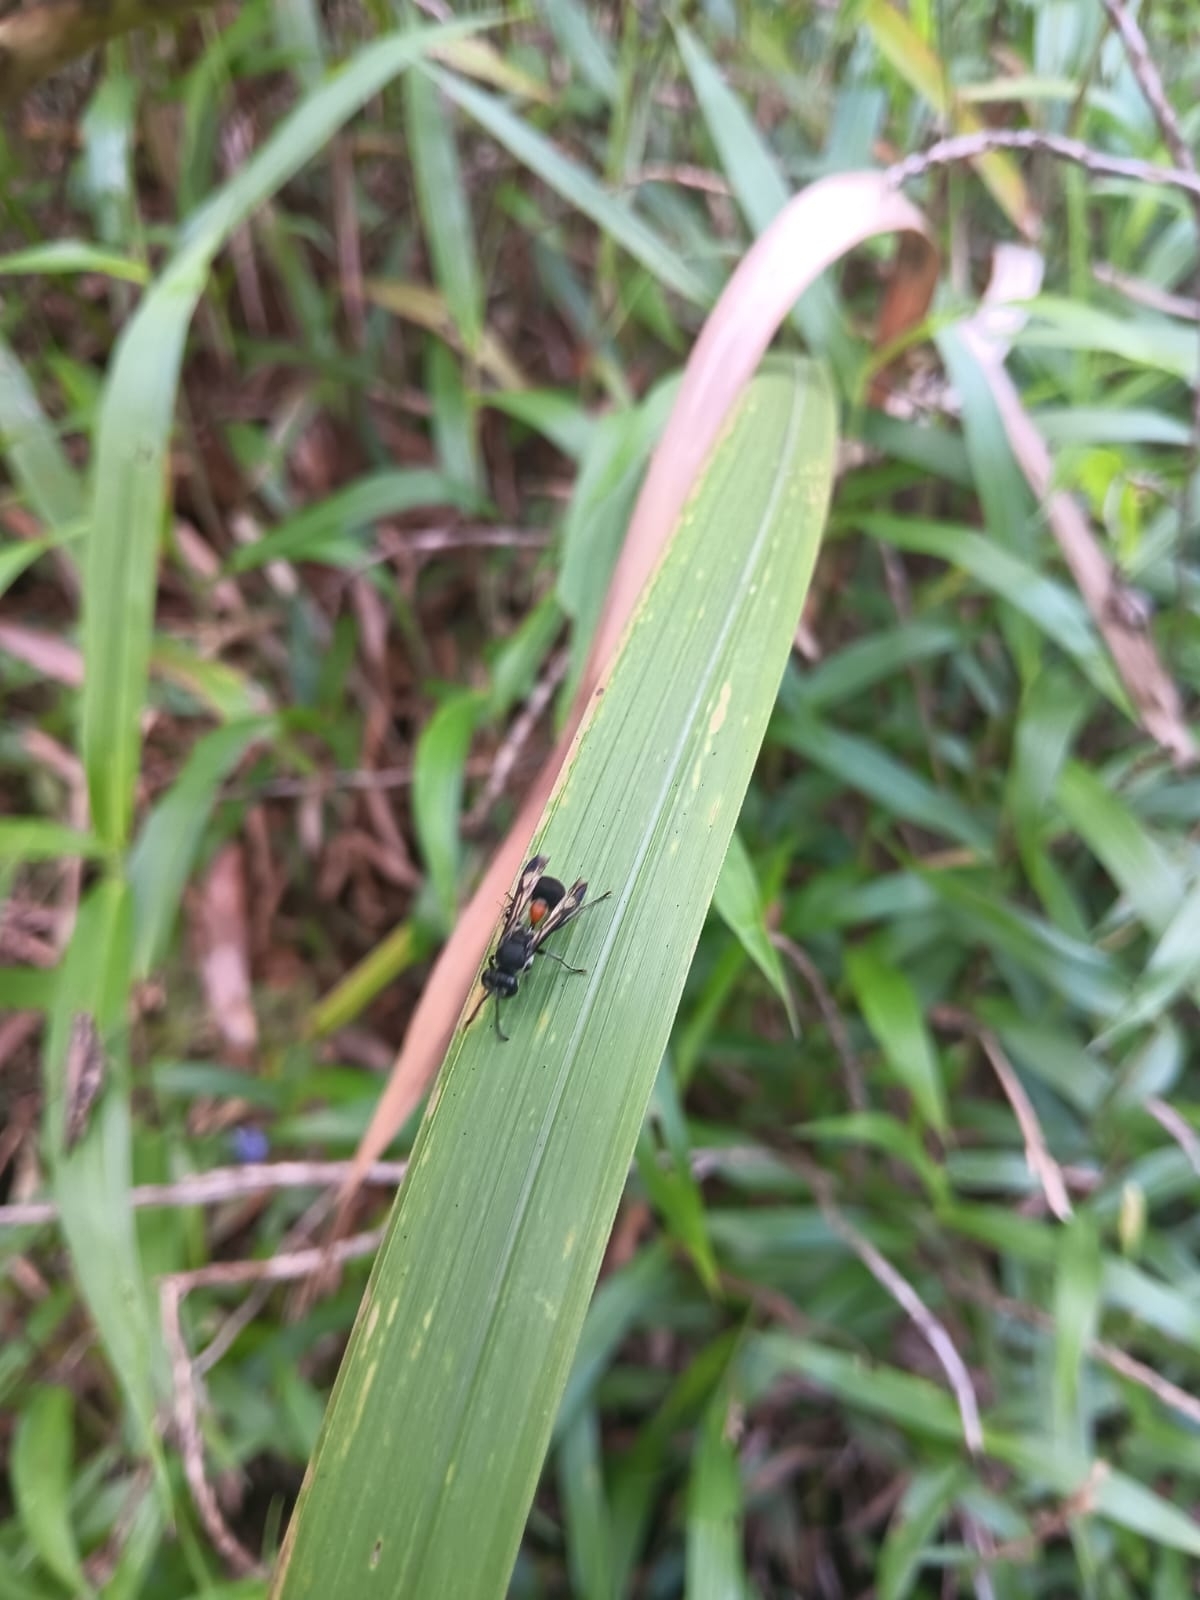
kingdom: Animalia
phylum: Arthropoda
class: Insecta
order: Hymenoptera
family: Vespidae
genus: Ropalidia
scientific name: Ropalidia sumatrae
